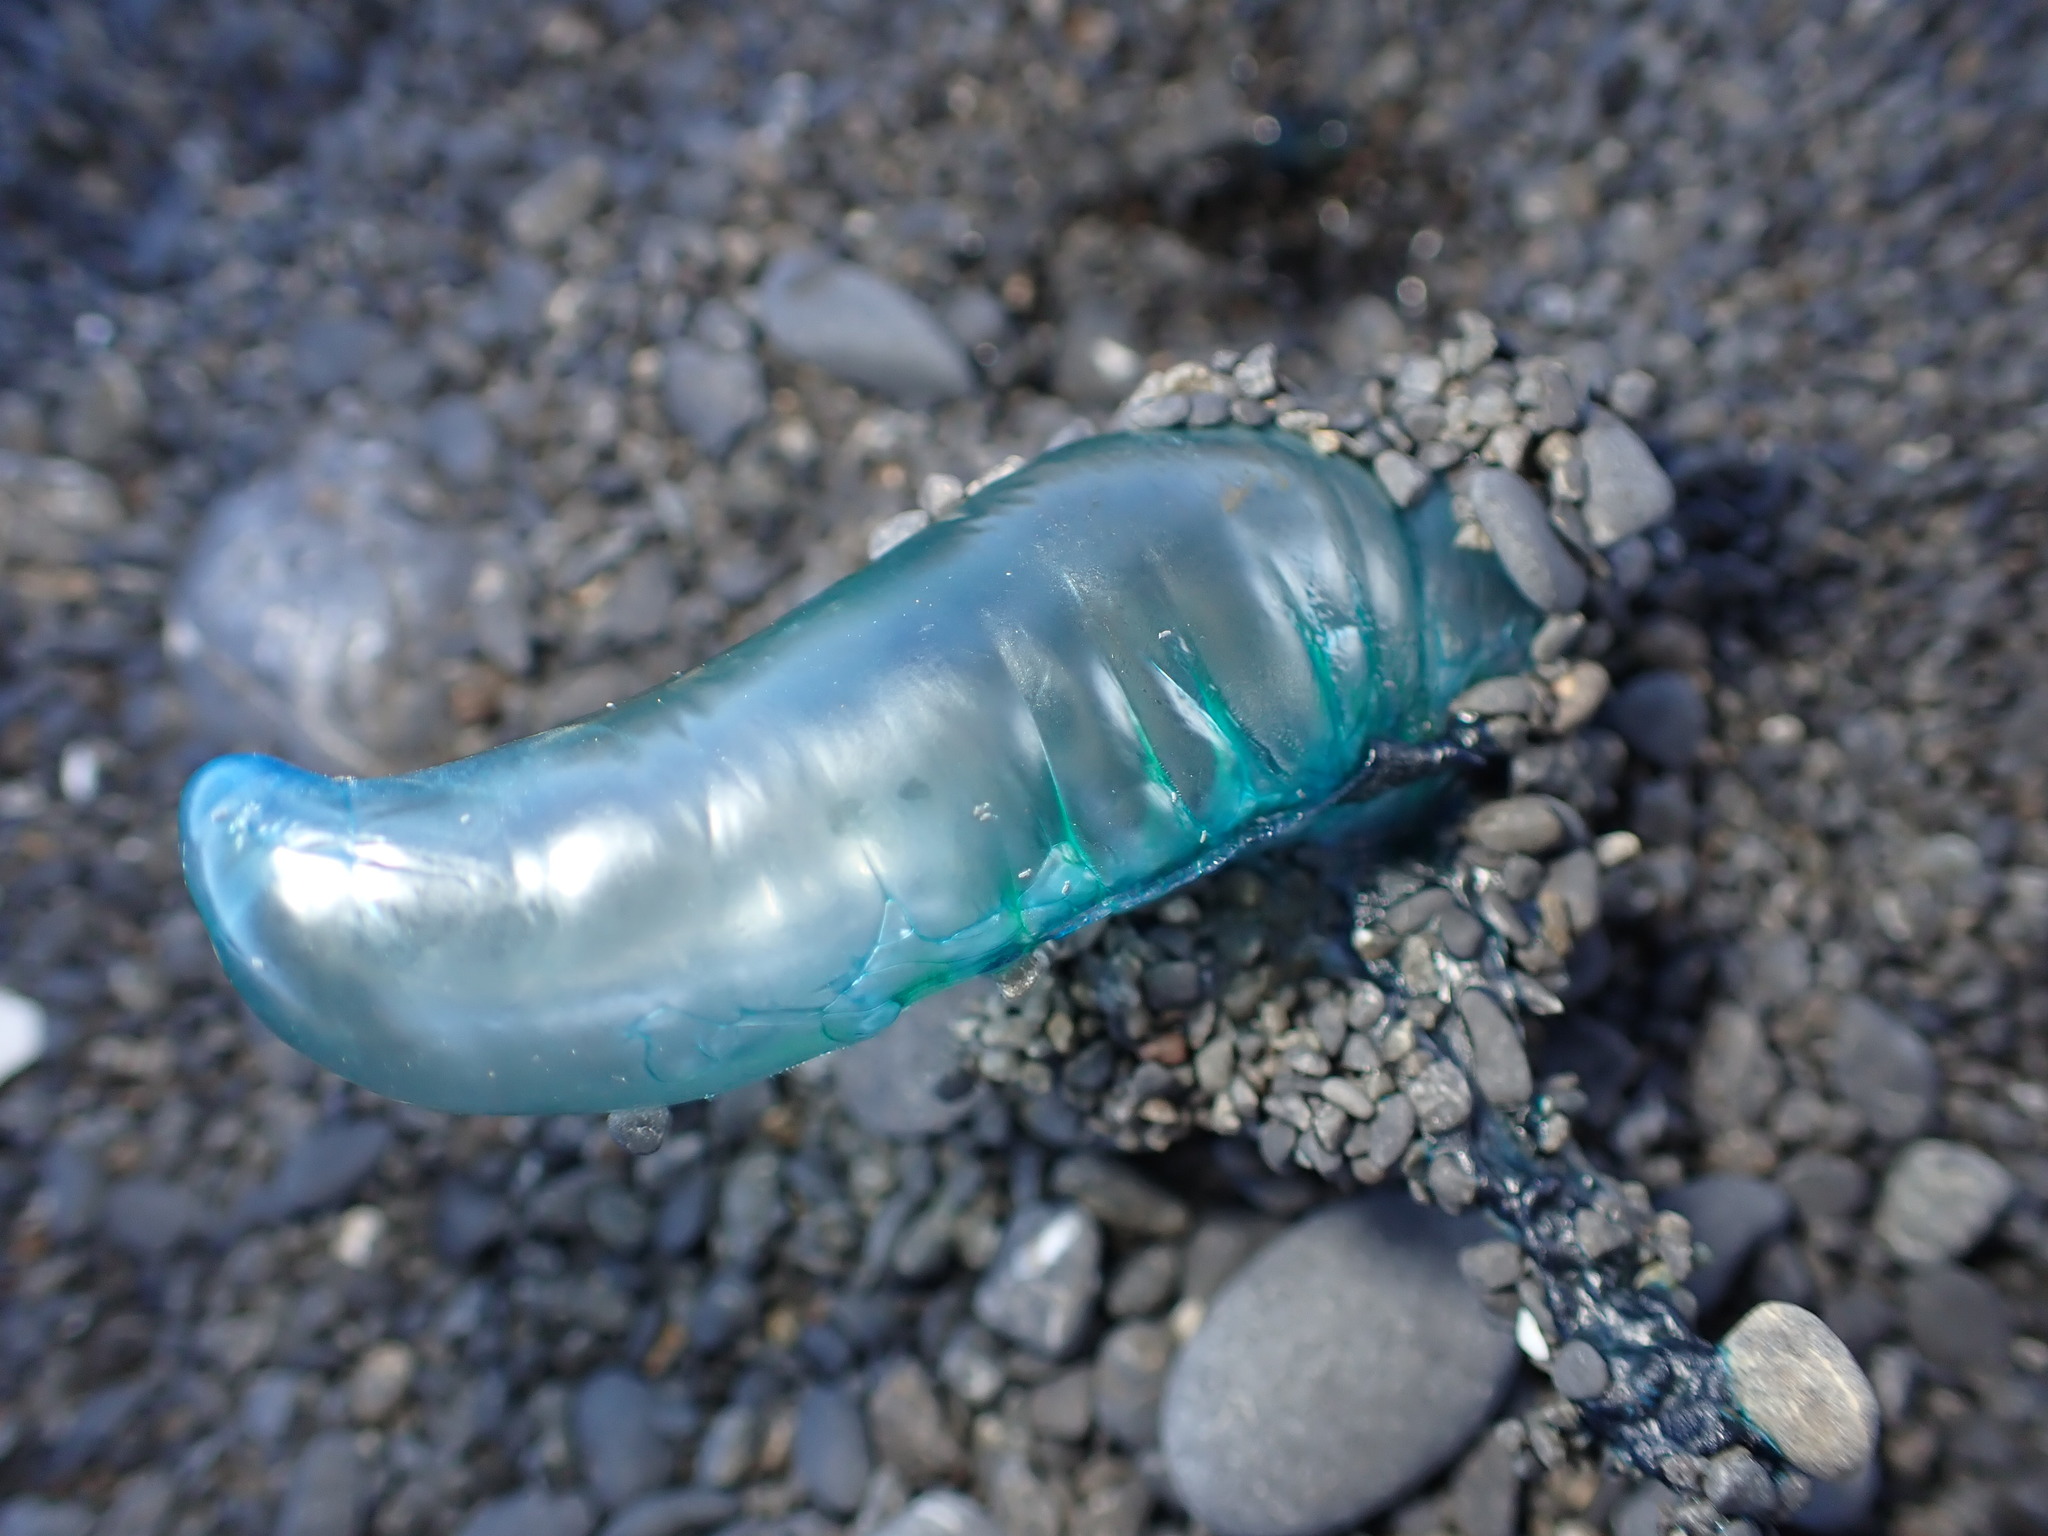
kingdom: Animalia
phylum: Cnidaria
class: Hydrozoa
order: Siphonophorae
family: Physaliidae
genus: Physalia
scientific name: Physalia physalis
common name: Portuguese man-of-war
